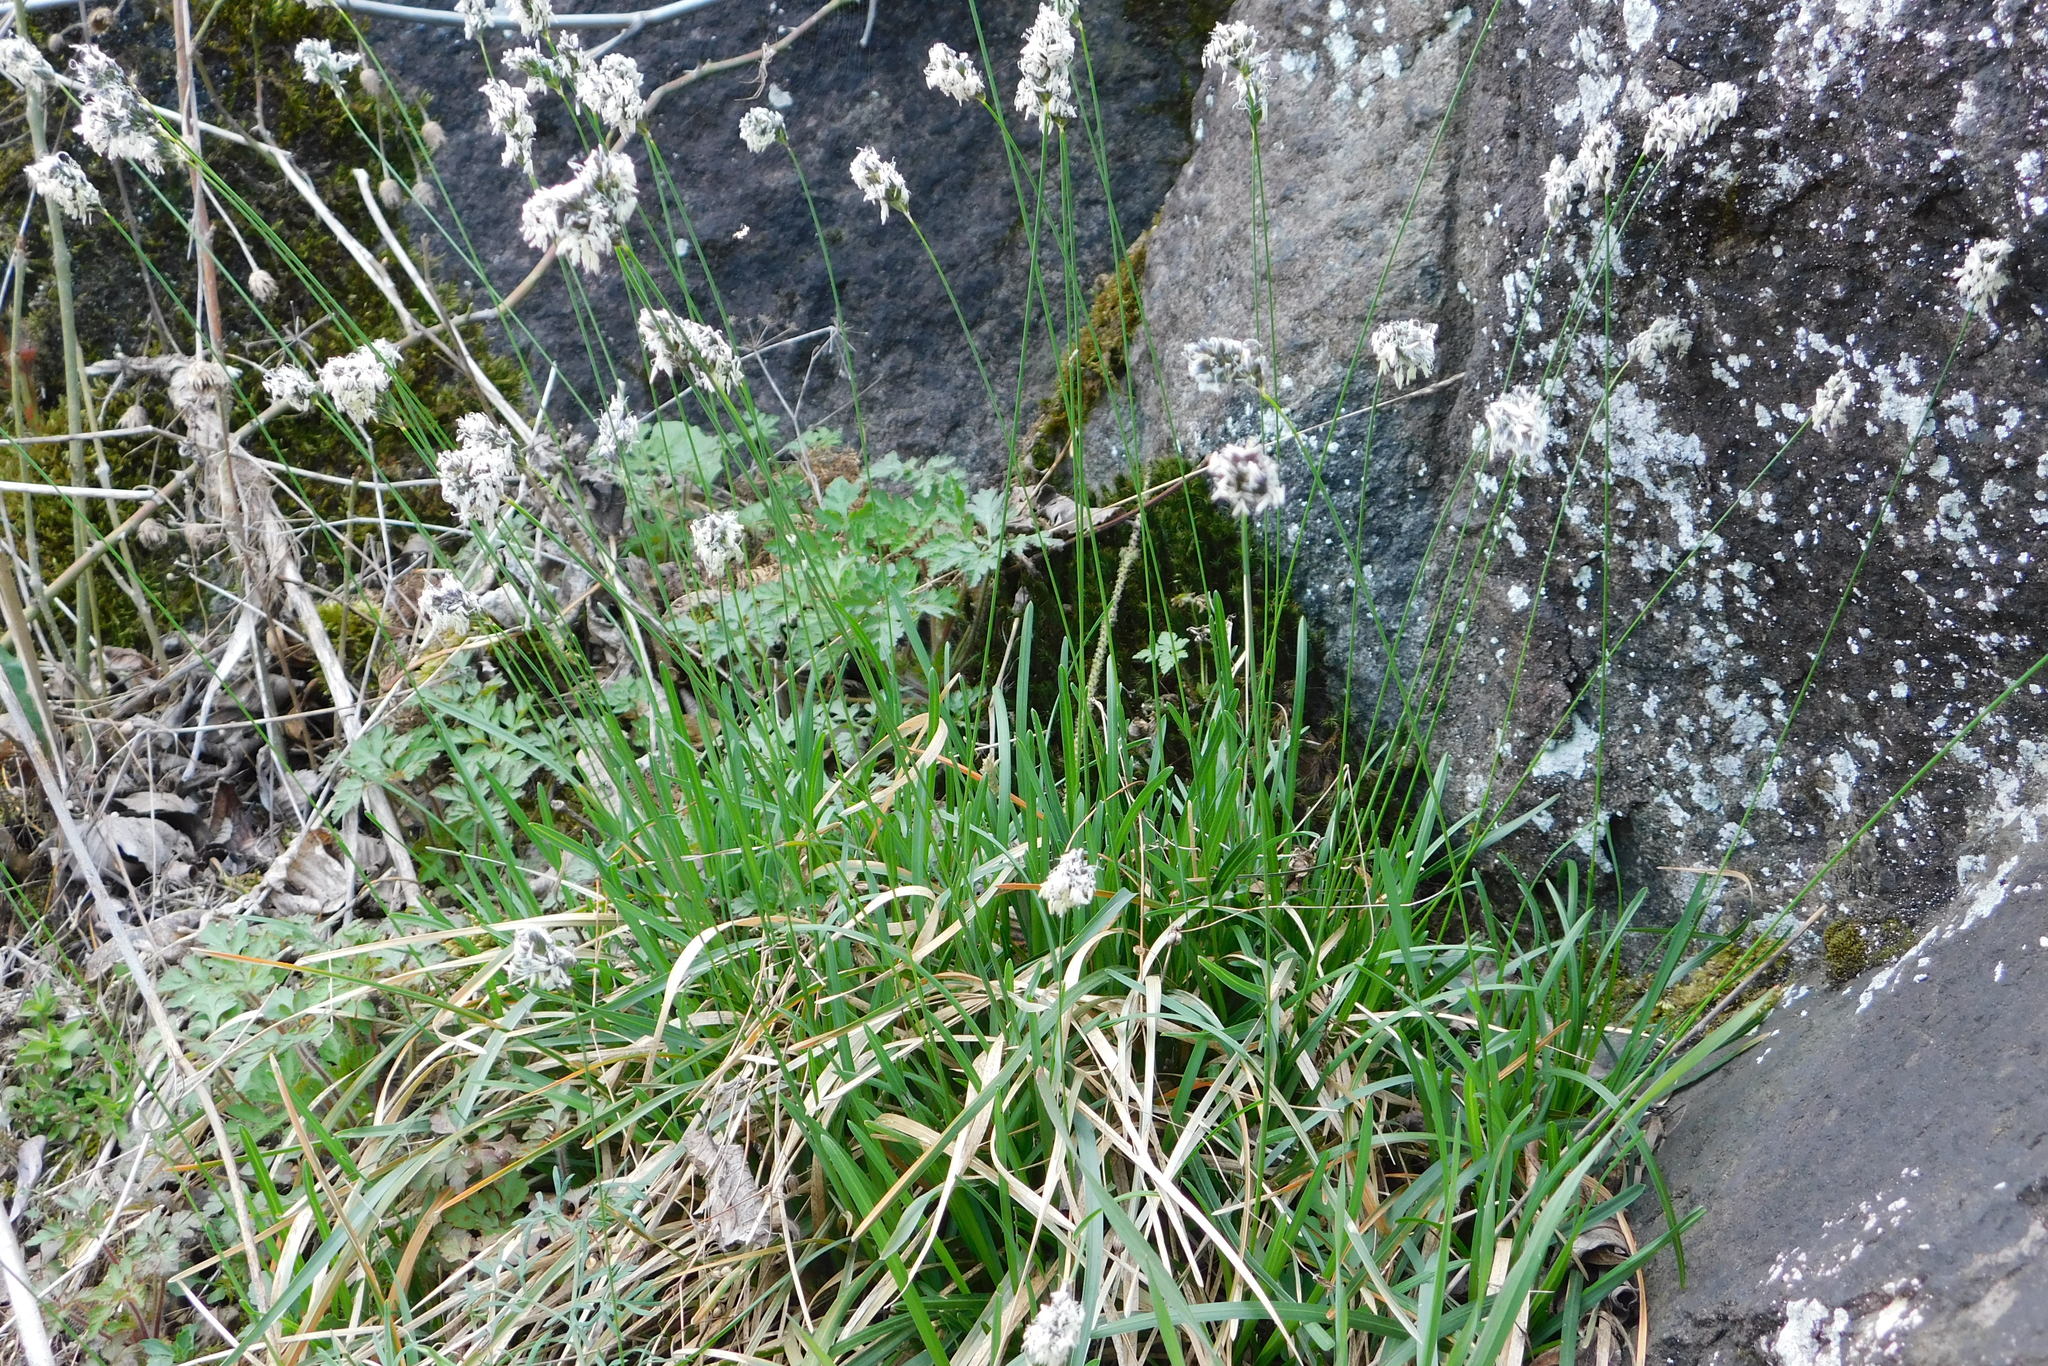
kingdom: Plantae
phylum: Tracheophyta
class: Liliopsida
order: Poales
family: Poaceae
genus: Sesleria
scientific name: Sesleria caerulea
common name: Blue moor-grass
